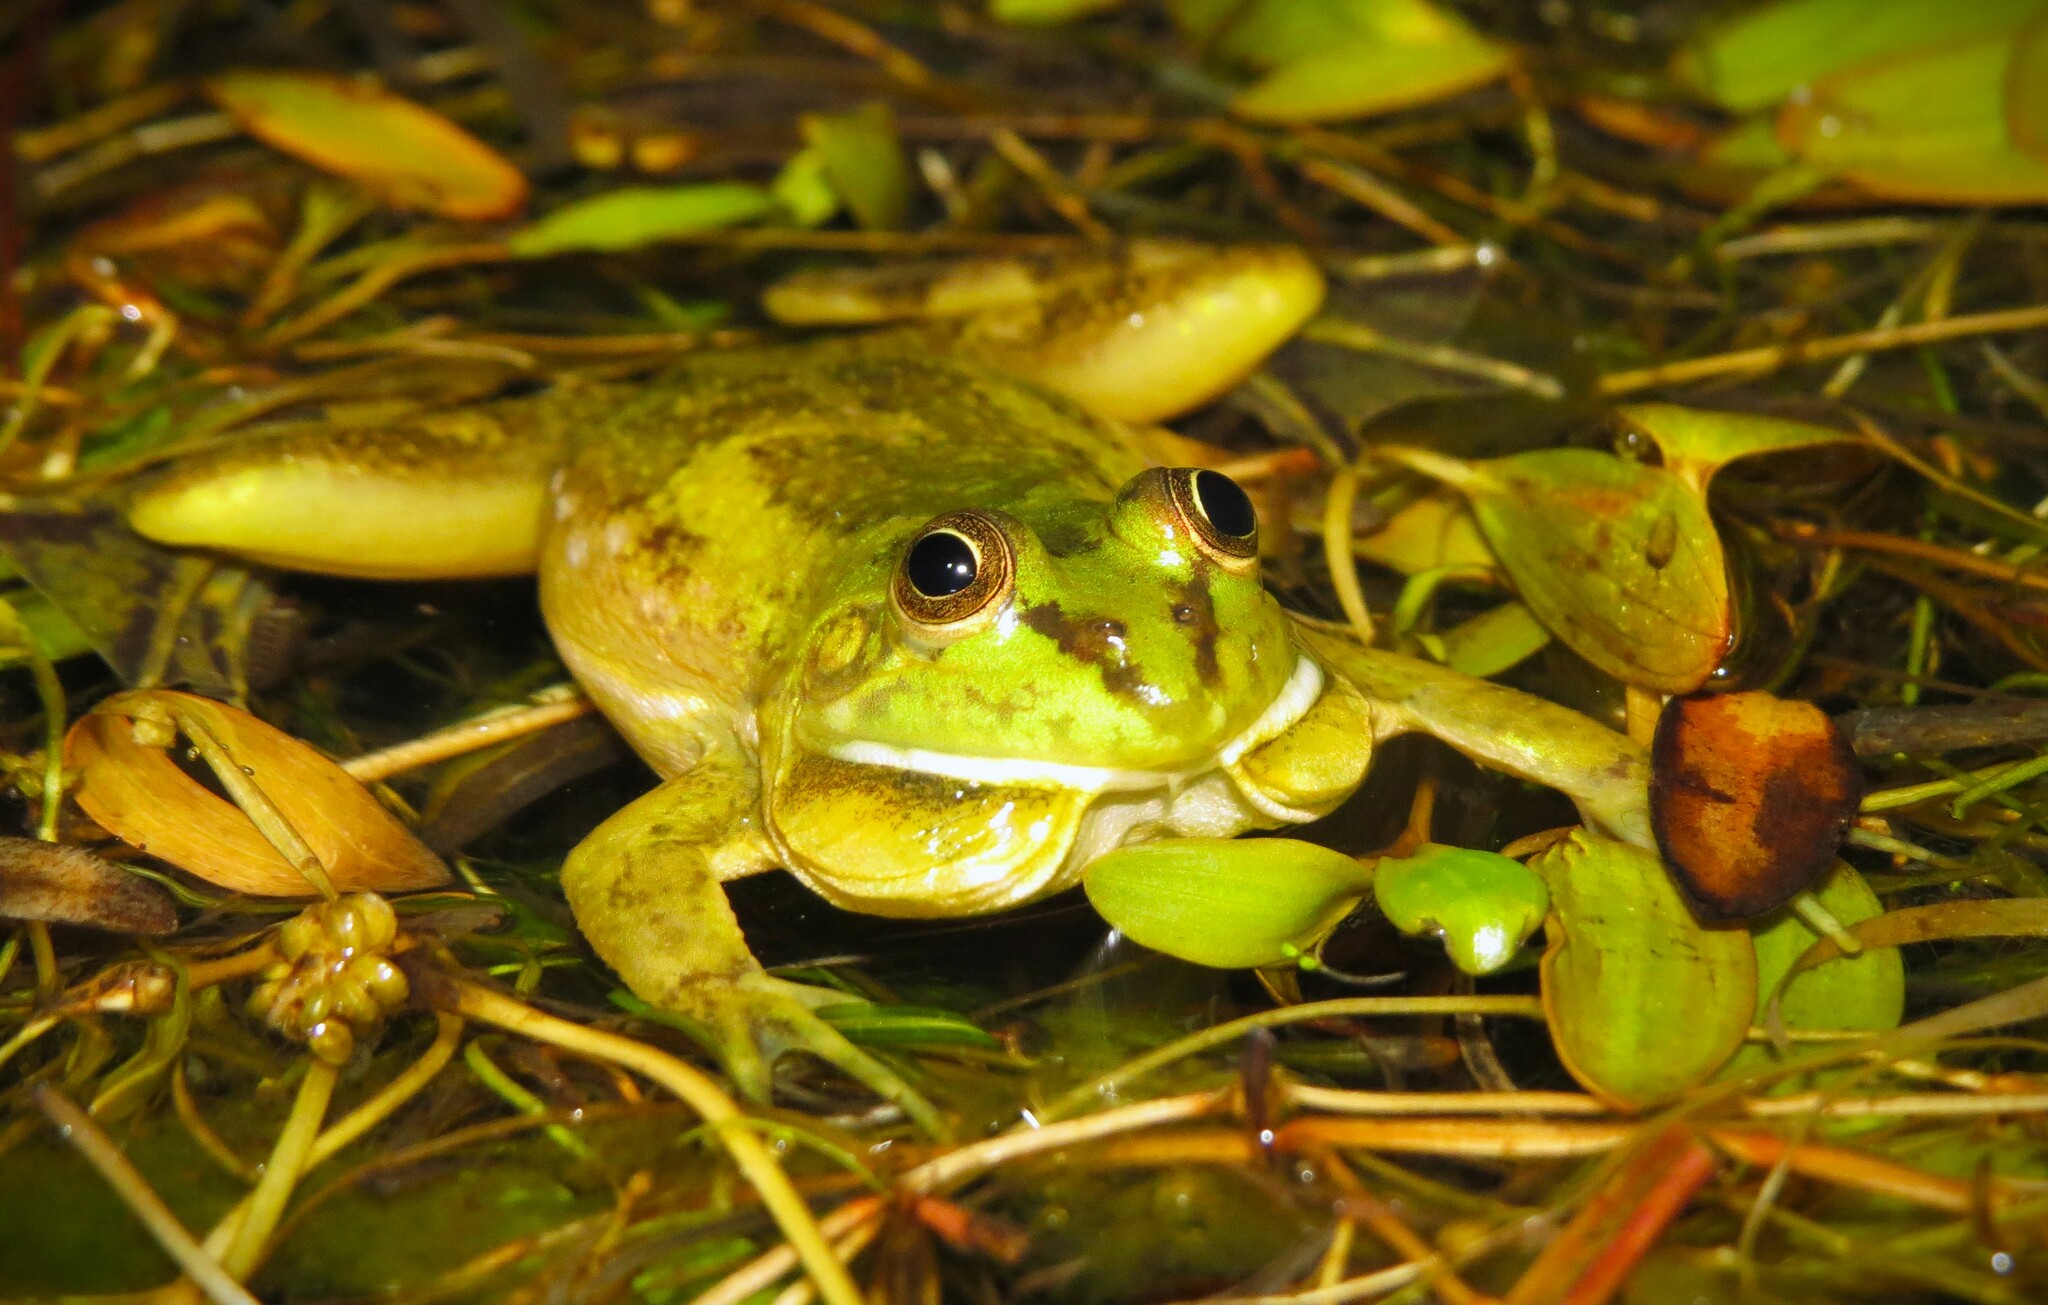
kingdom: Animalia
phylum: Chordata
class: Amphibia
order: Anura
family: Hylidae
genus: Pseudis
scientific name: Pseudis minuta
